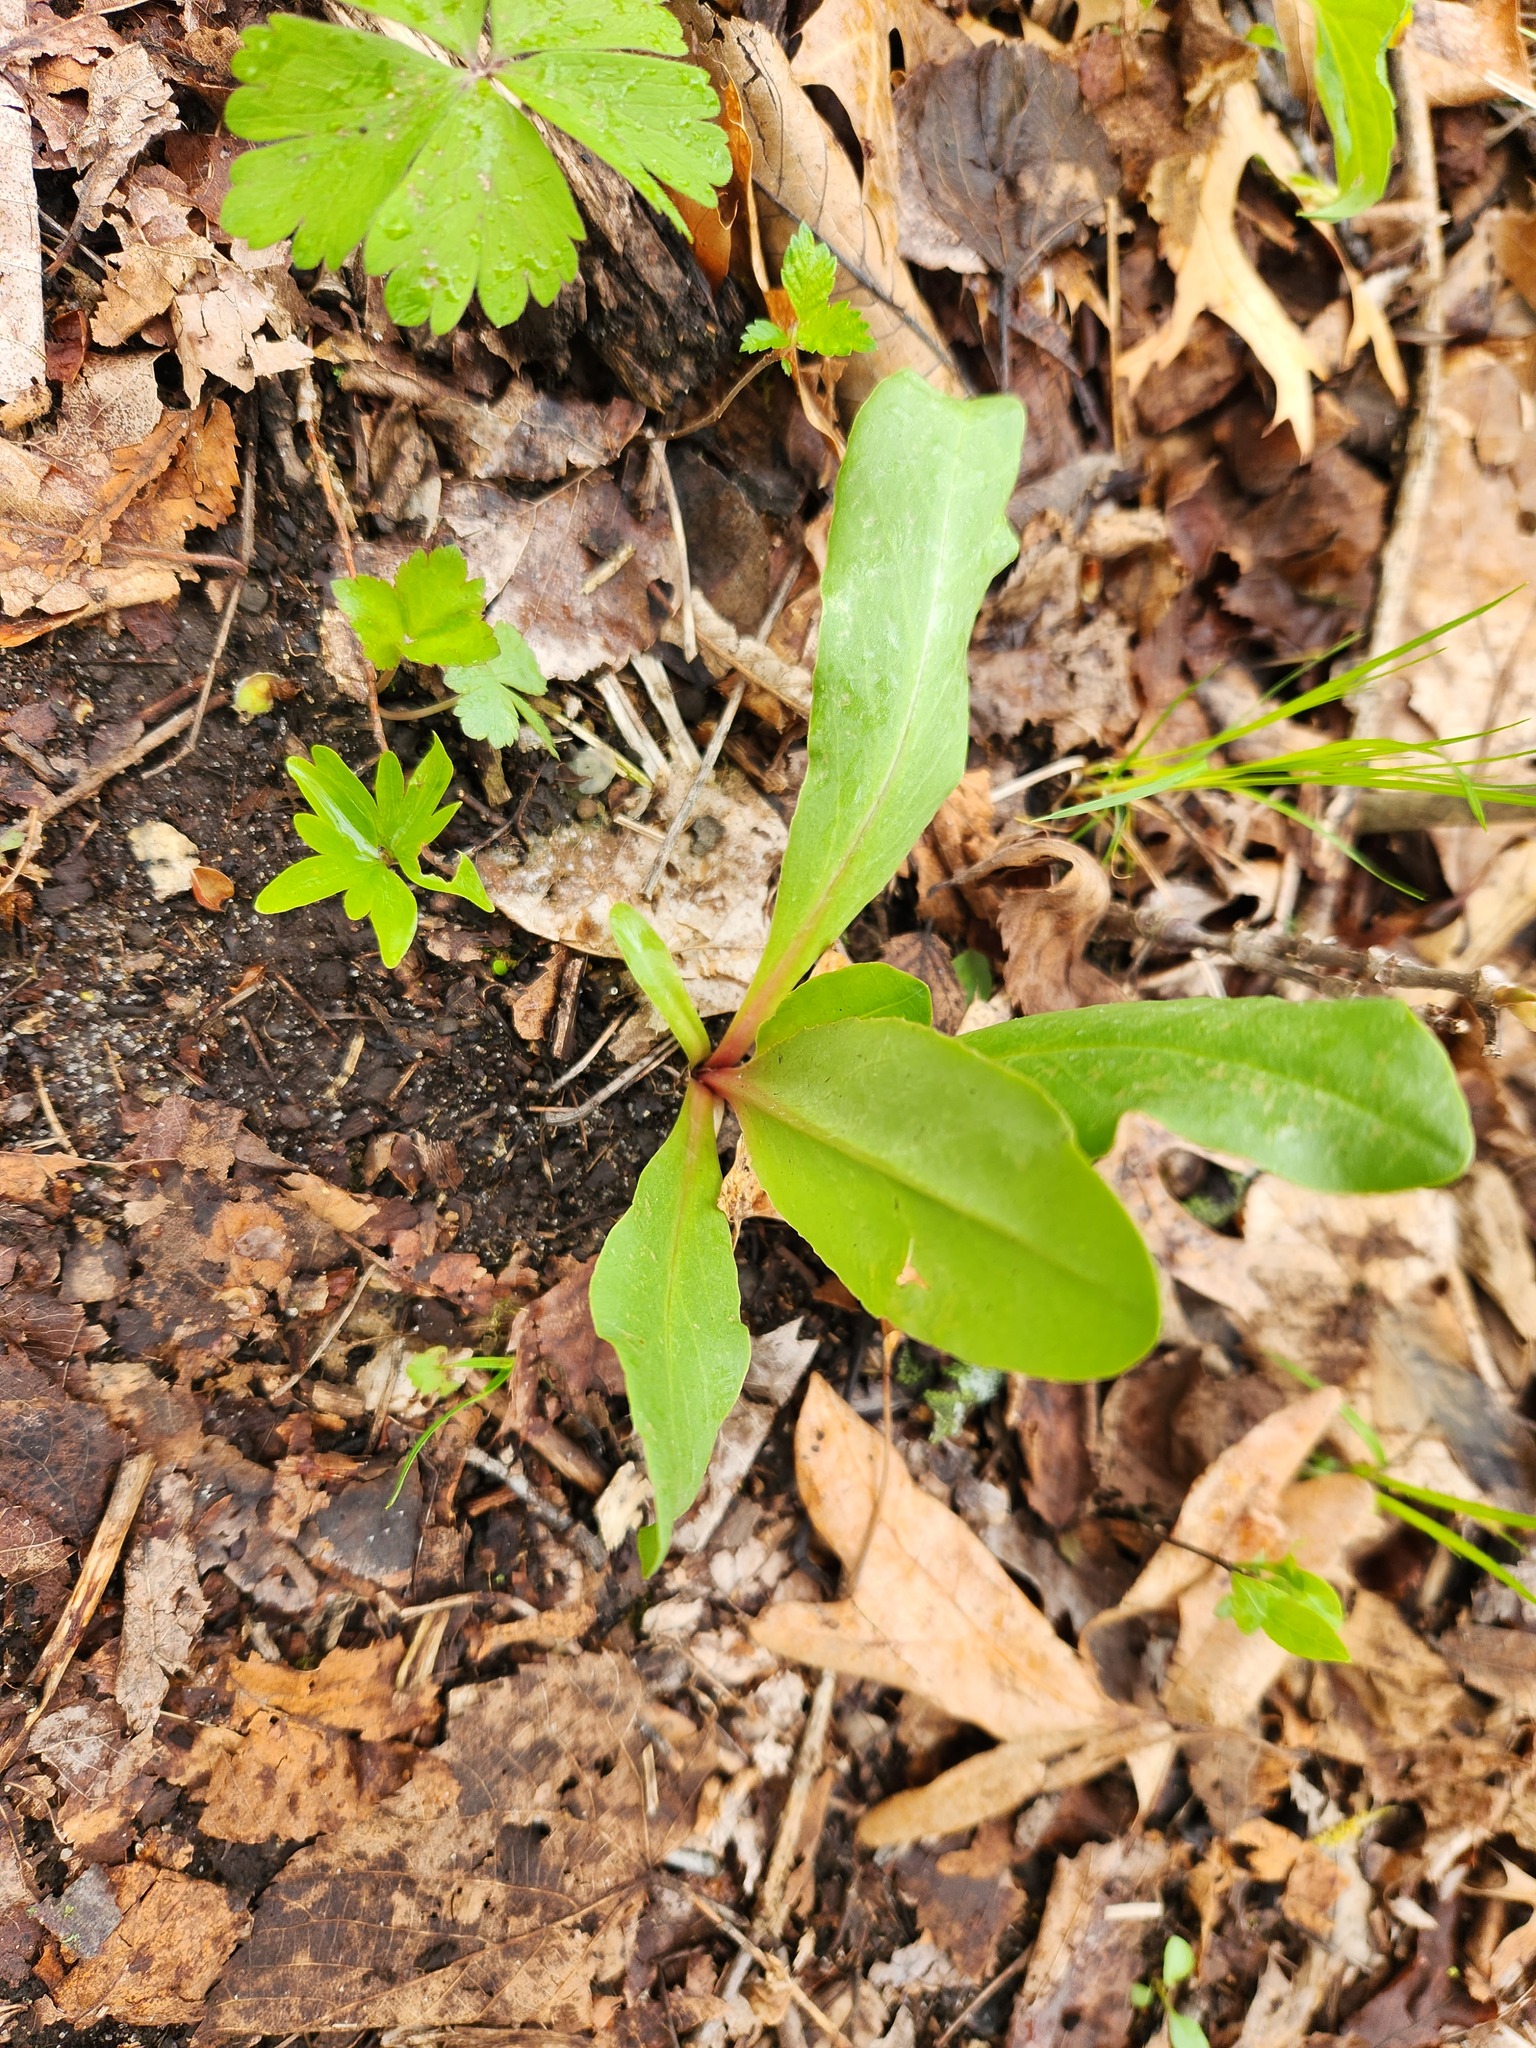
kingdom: Plantae
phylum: Tracheophyta
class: Magnoliopsida
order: Ericales
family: Primulaceae
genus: Dodecatheon
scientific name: Dodecatheon meadia
